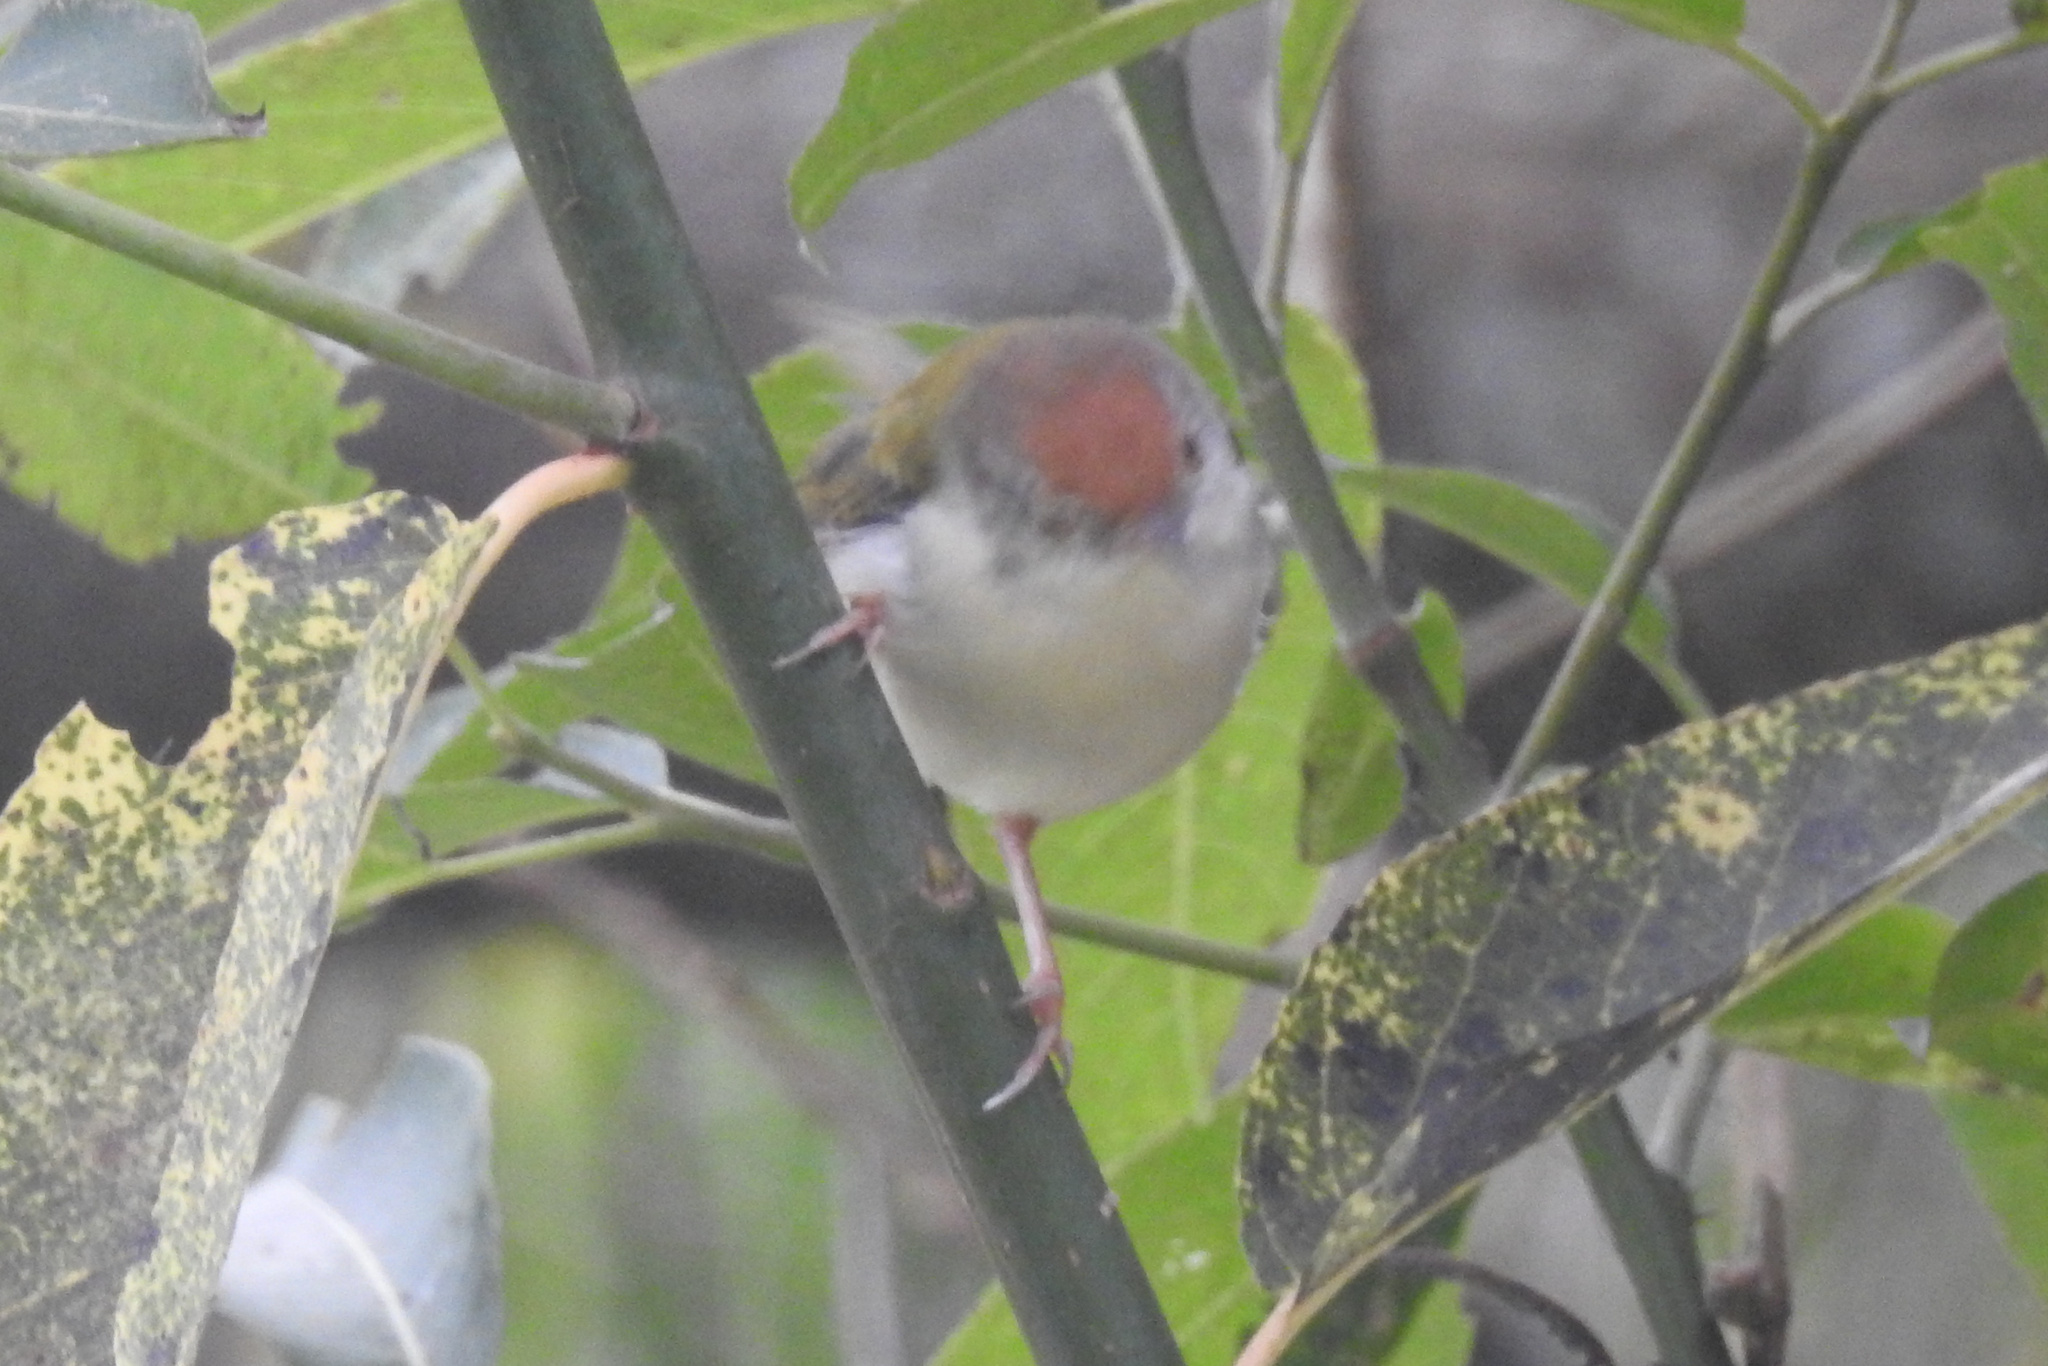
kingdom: Animalia
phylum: Chordata
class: Aves
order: Passeriformes
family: Cisticolidae
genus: Orthotomus
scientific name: Orthotomus sutorius
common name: Common tailorbird
